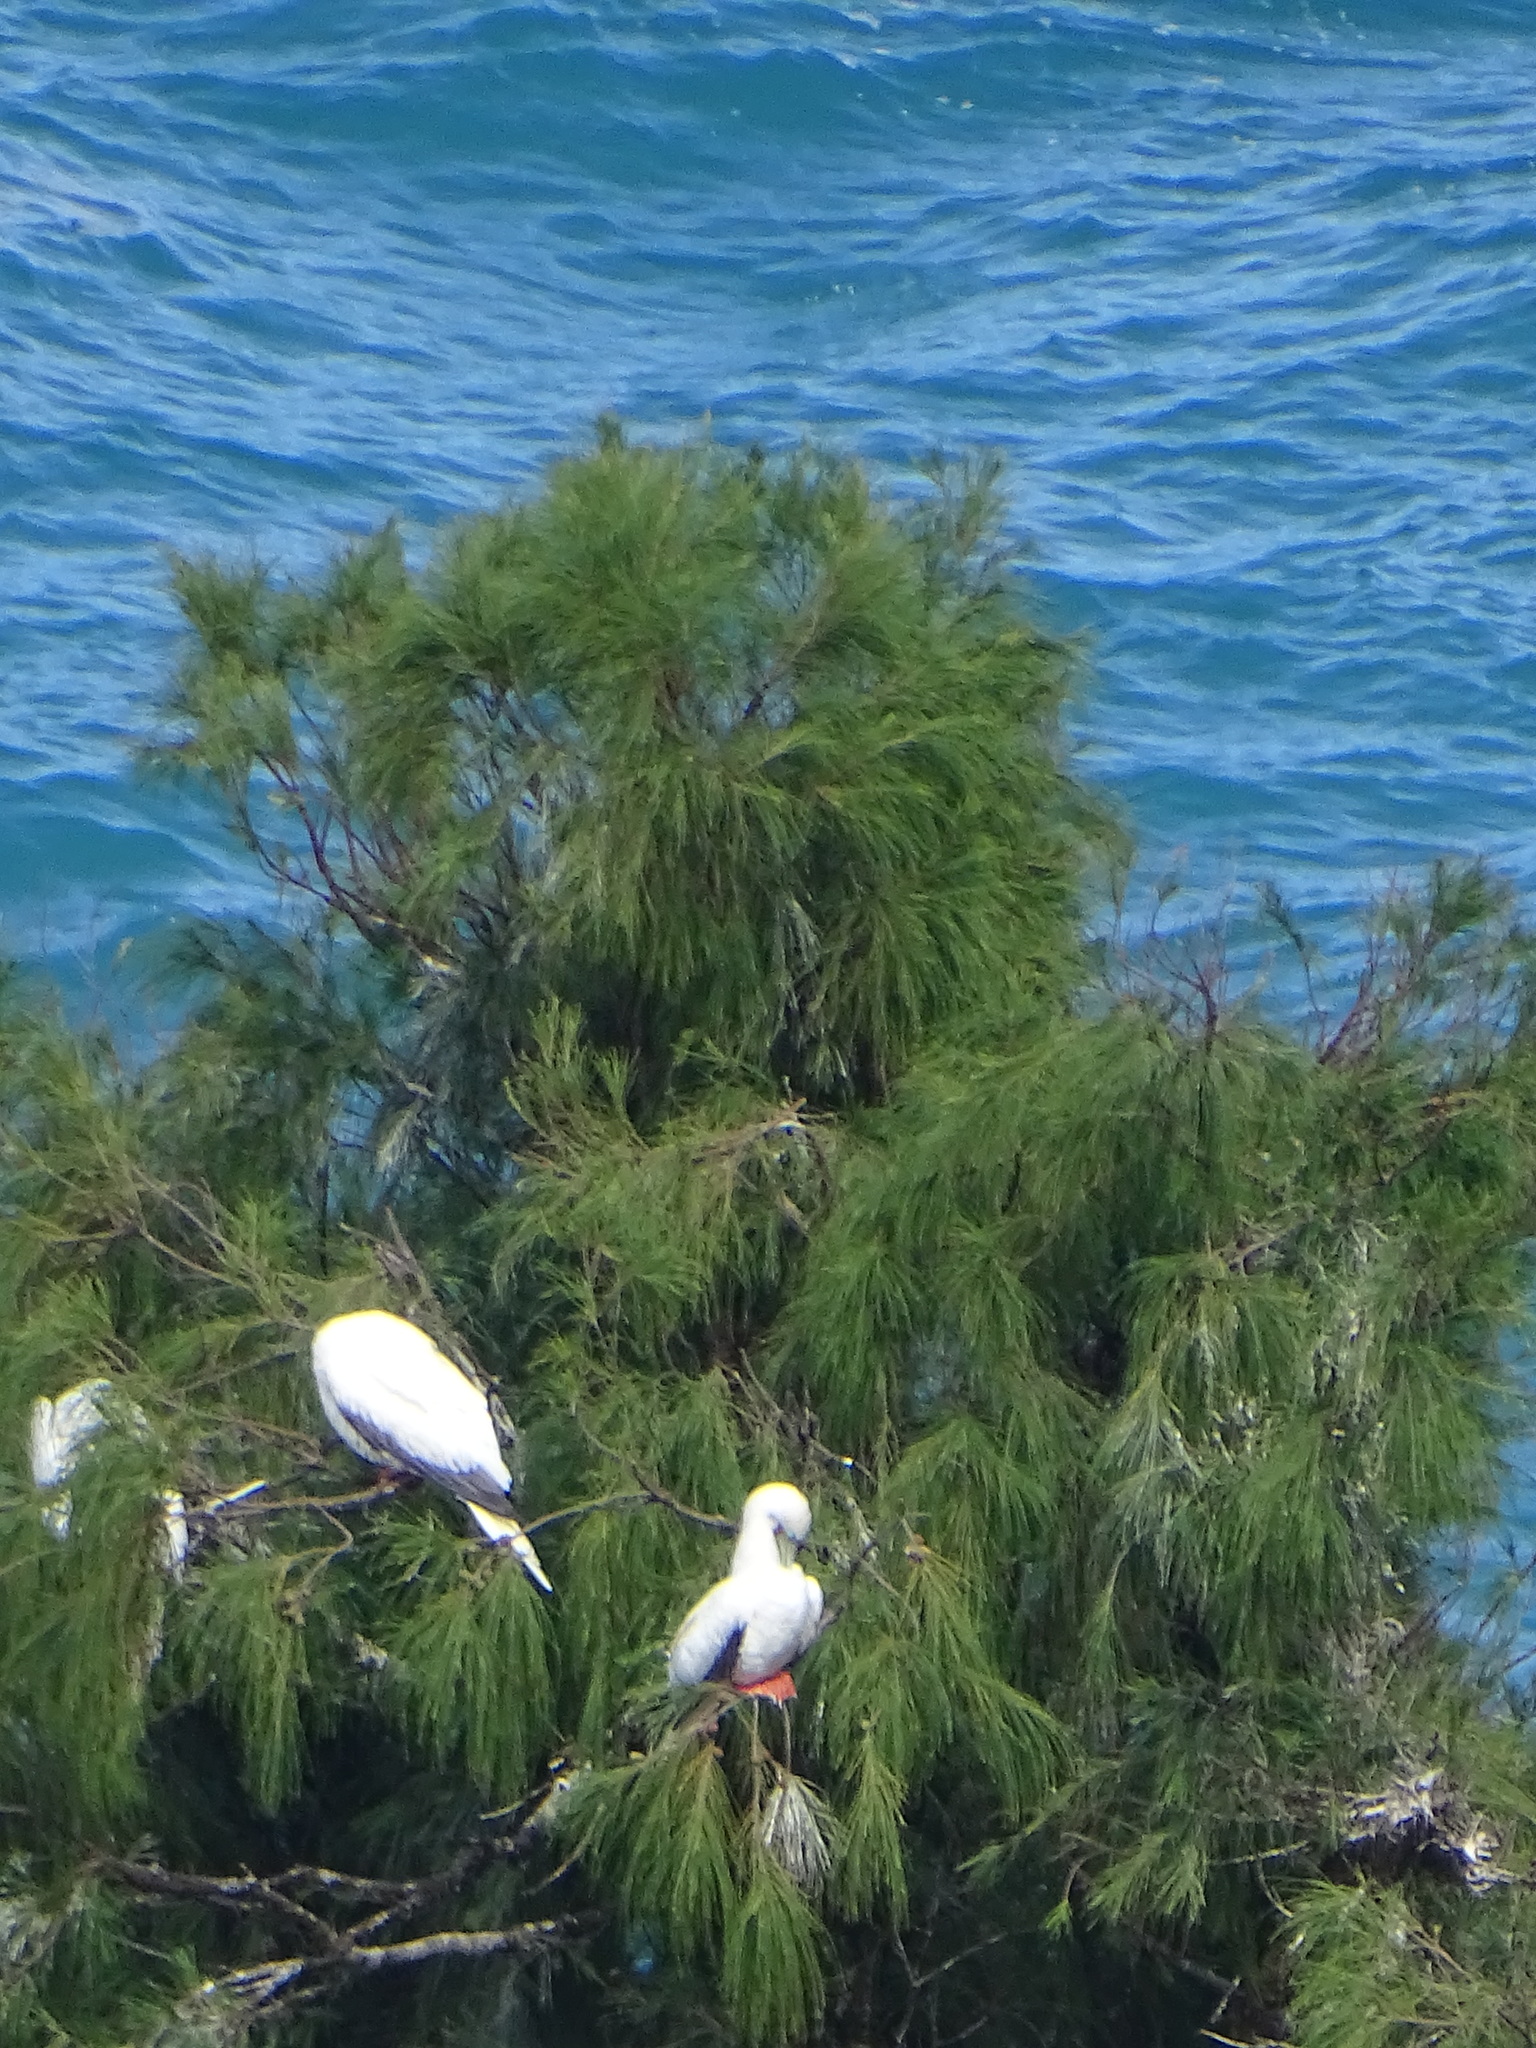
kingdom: Animalia
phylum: Chordata
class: Aves
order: Suliformes
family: Sulidae
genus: Sula
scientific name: Sula sula
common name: Red-footed booby
